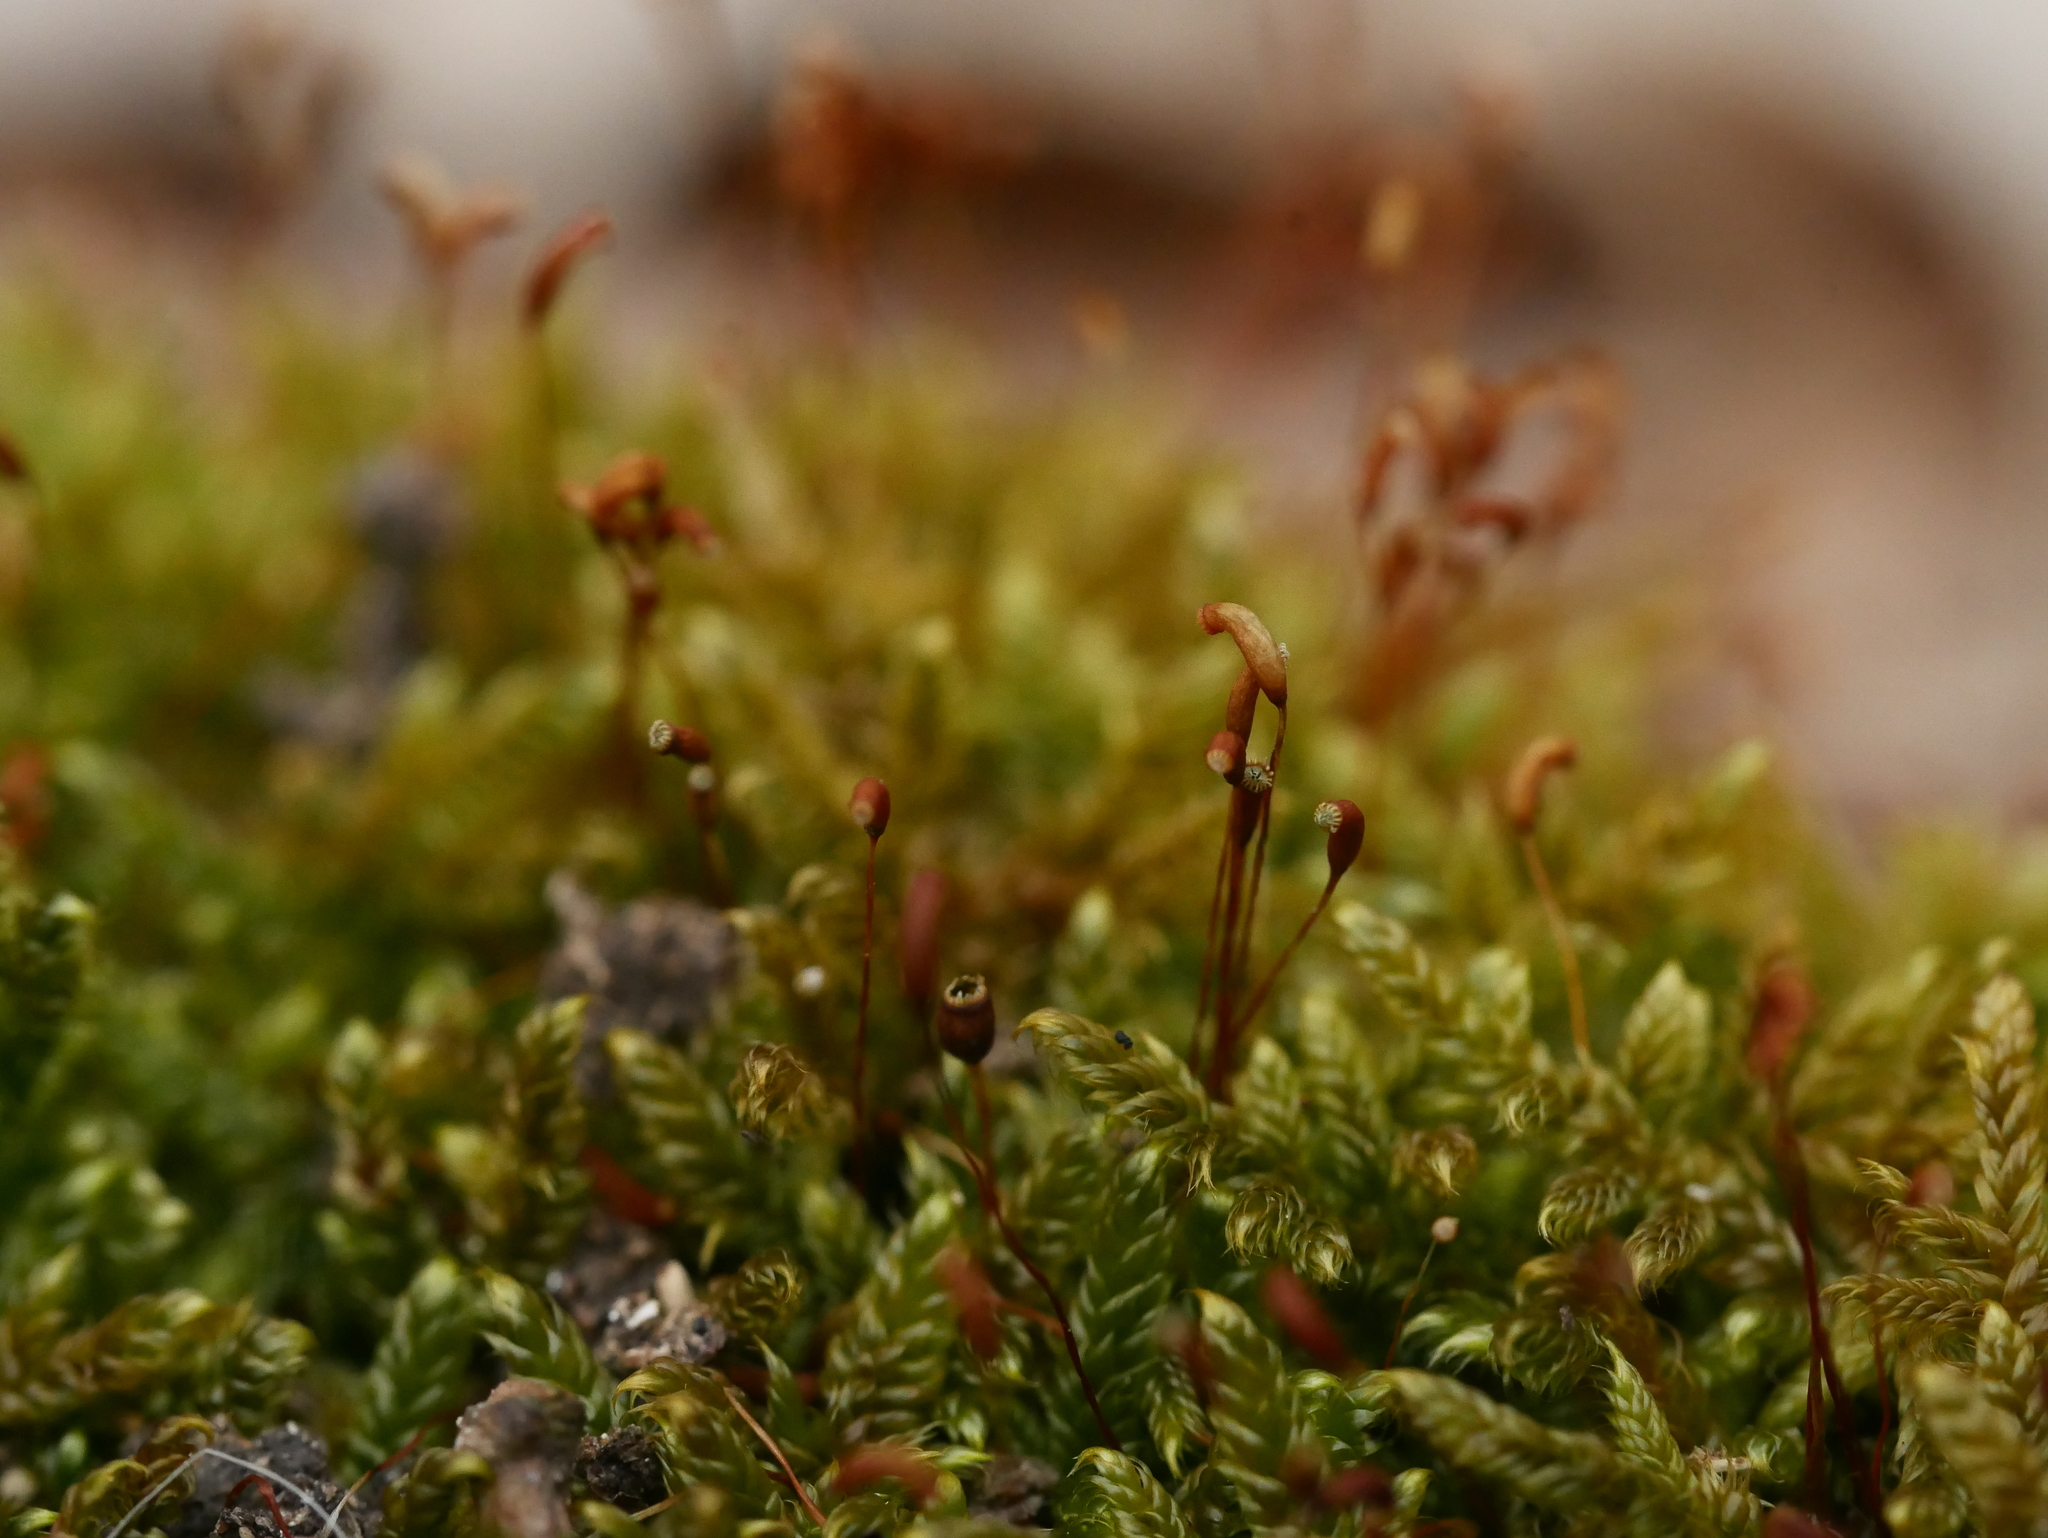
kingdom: Plantae
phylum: Bryophyta
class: Bryopsida
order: Hypnales
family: Hypnaceae
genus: Hypnum
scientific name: Hypnum cupressiforme
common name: Cypress-leaved plait-moss
